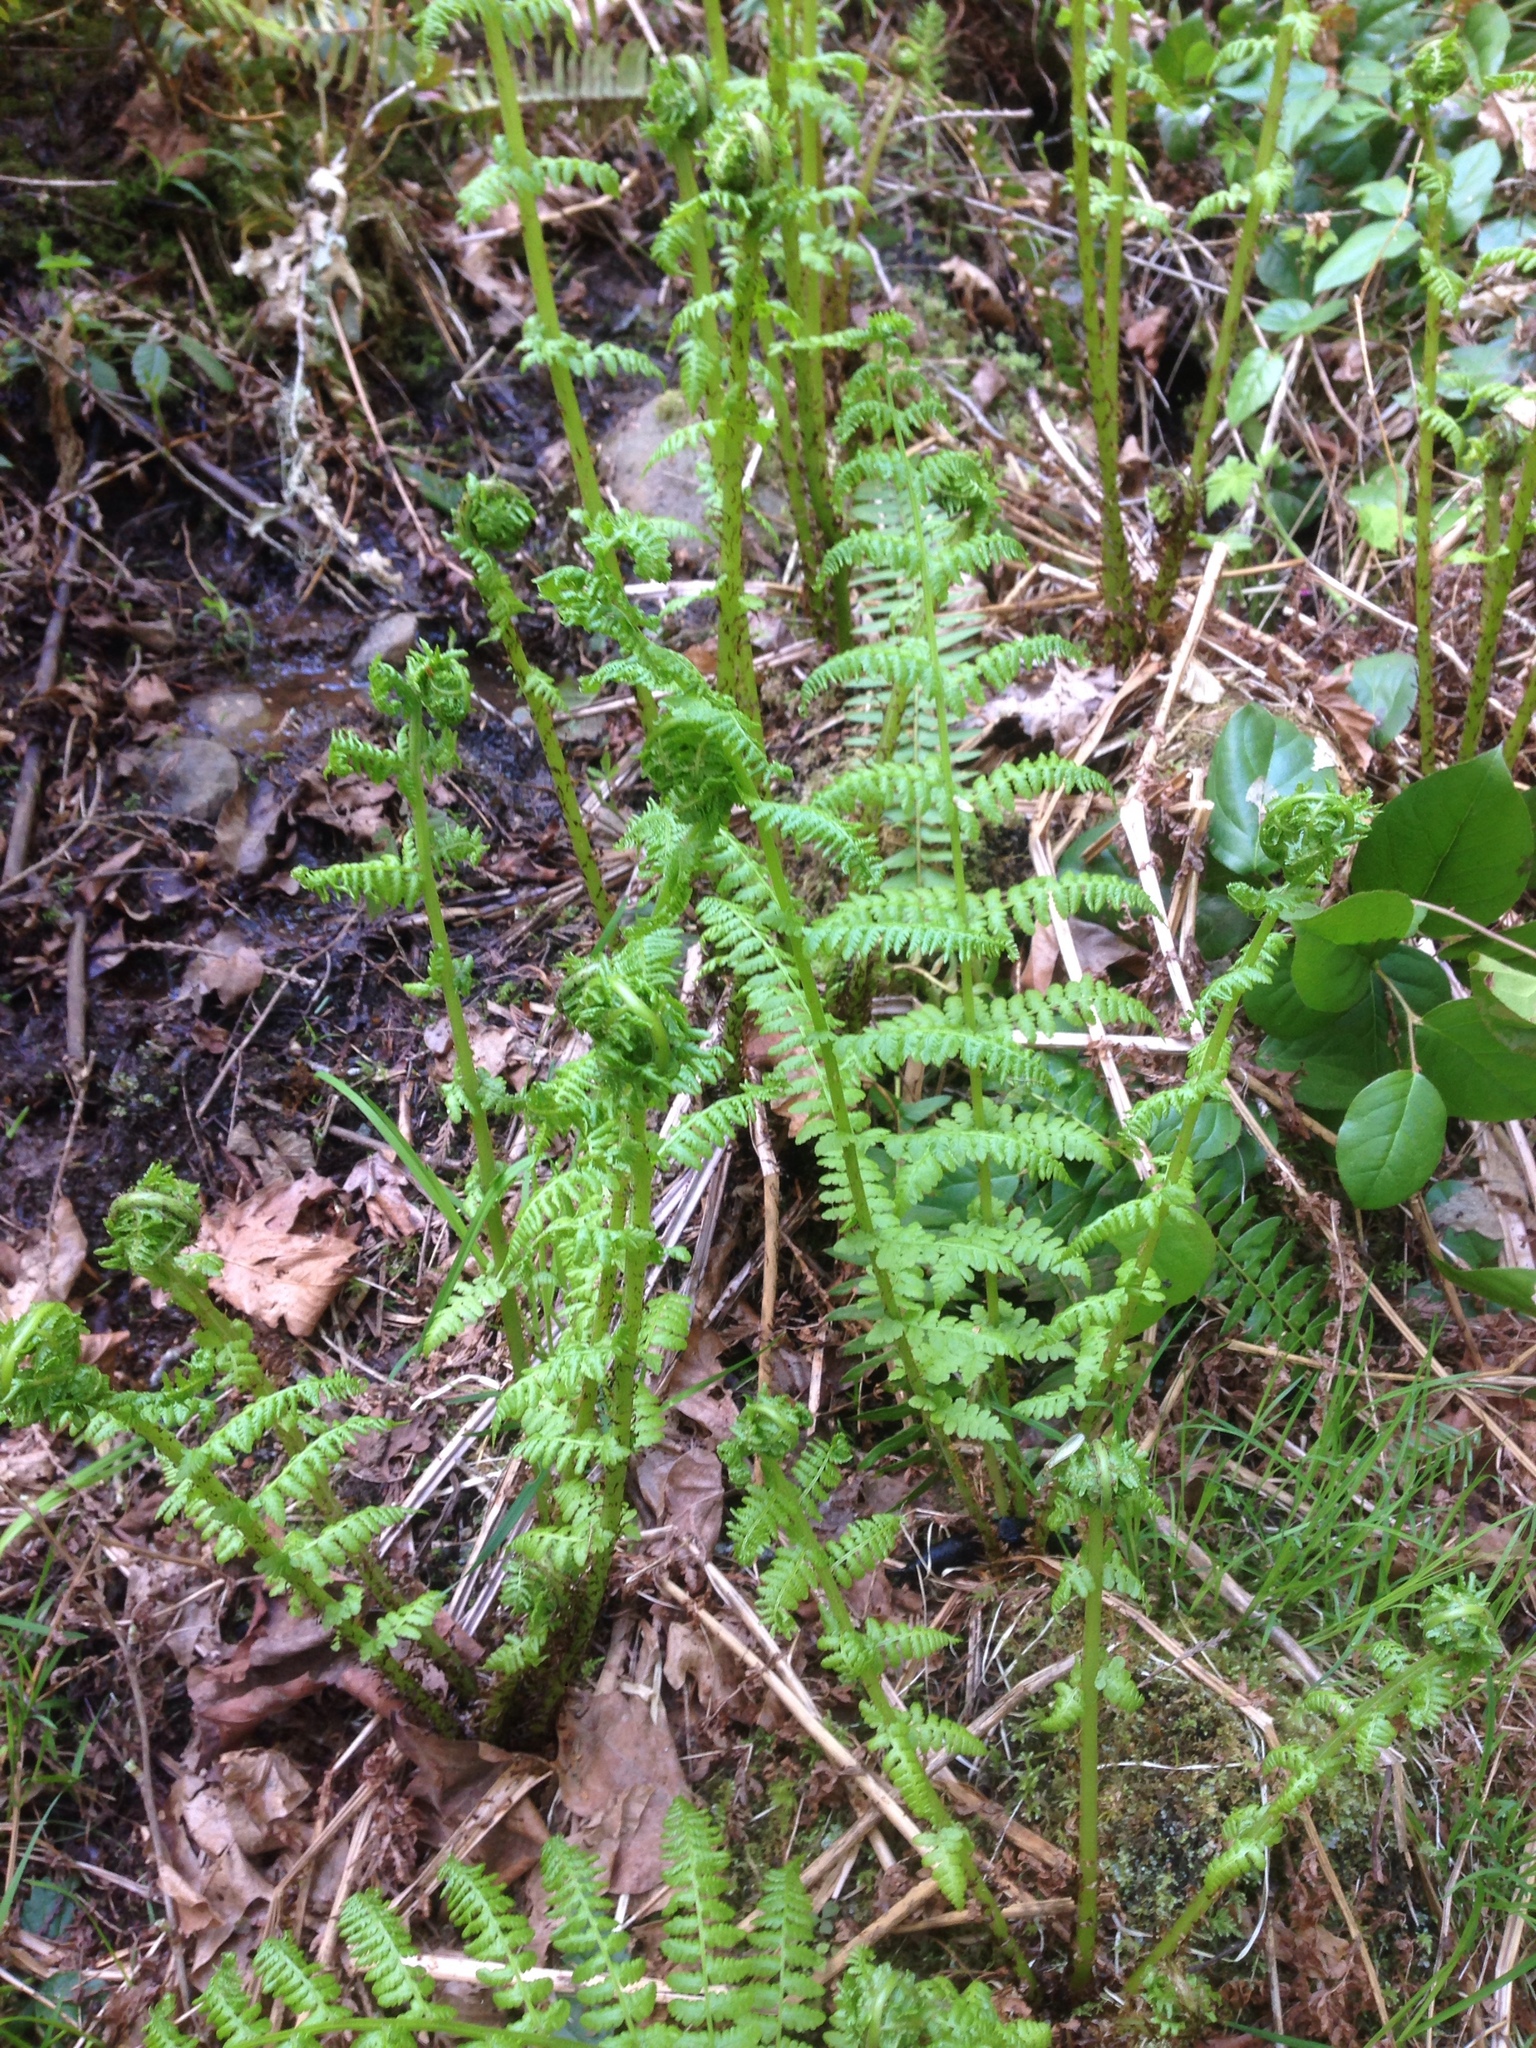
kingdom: Plantae
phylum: Tracheophyta
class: Polypodiopsida
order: Polypodiales
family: Athyriaceae
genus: Athyrium
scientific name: Athyrium filix-femina
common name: Lady fern
